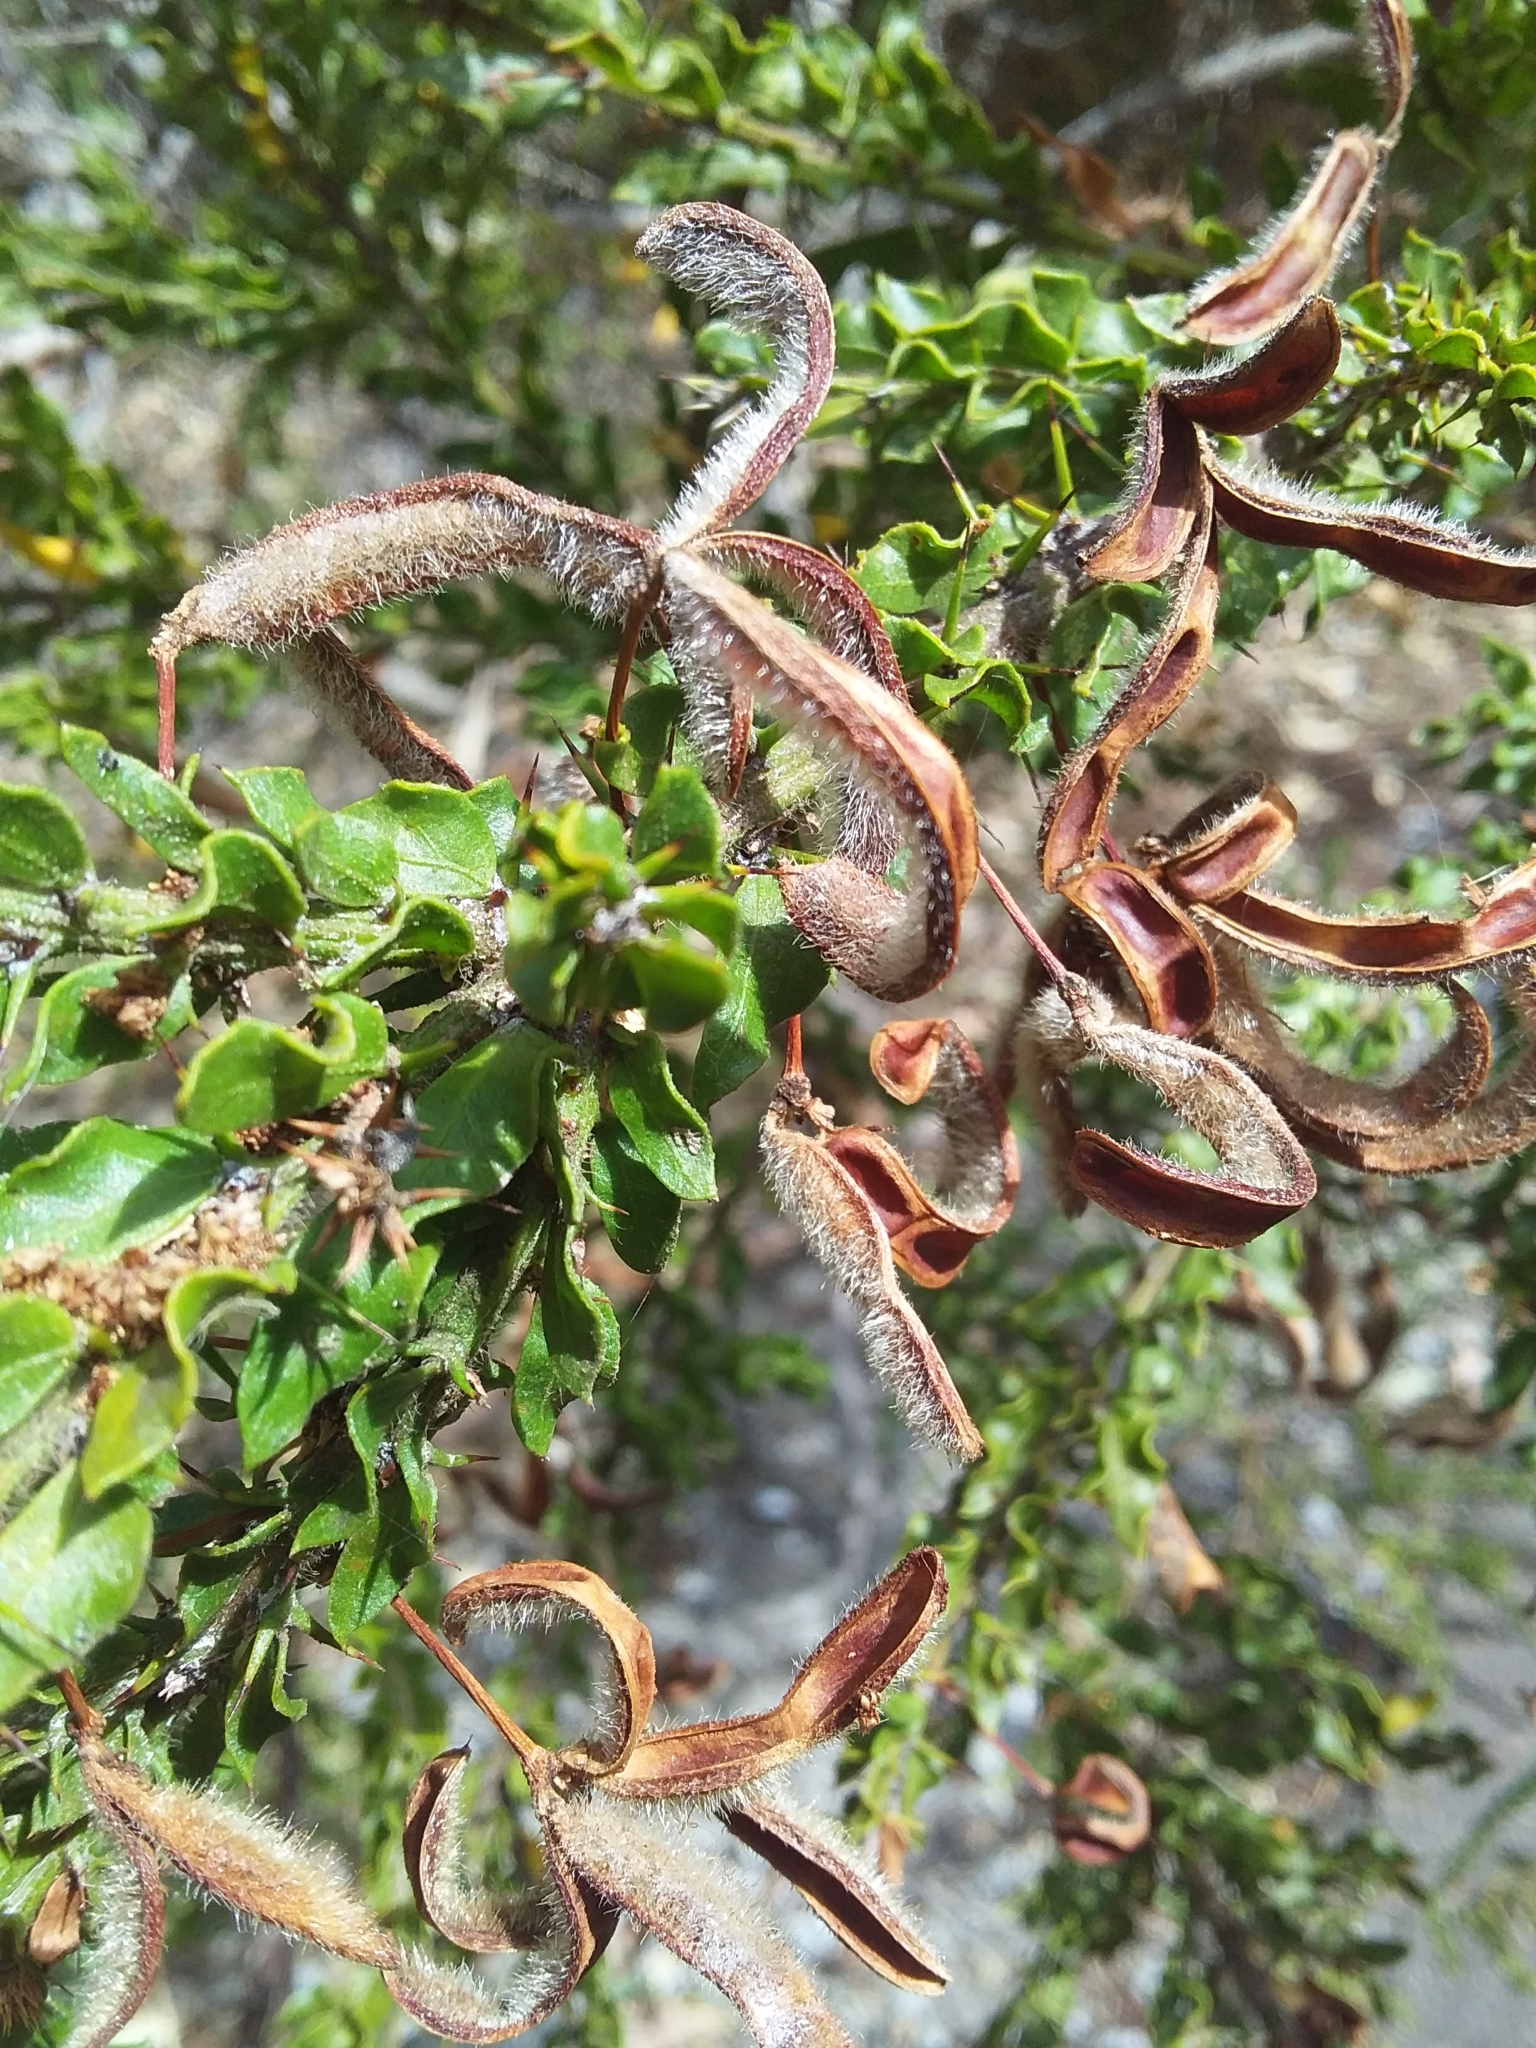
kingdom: Plantae
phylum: Tracheophyta
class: Magnoliopsida
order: Fabales
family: Fabaceae
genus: Acacia
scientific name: Acacia paradoxa
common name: Paradox acacia
